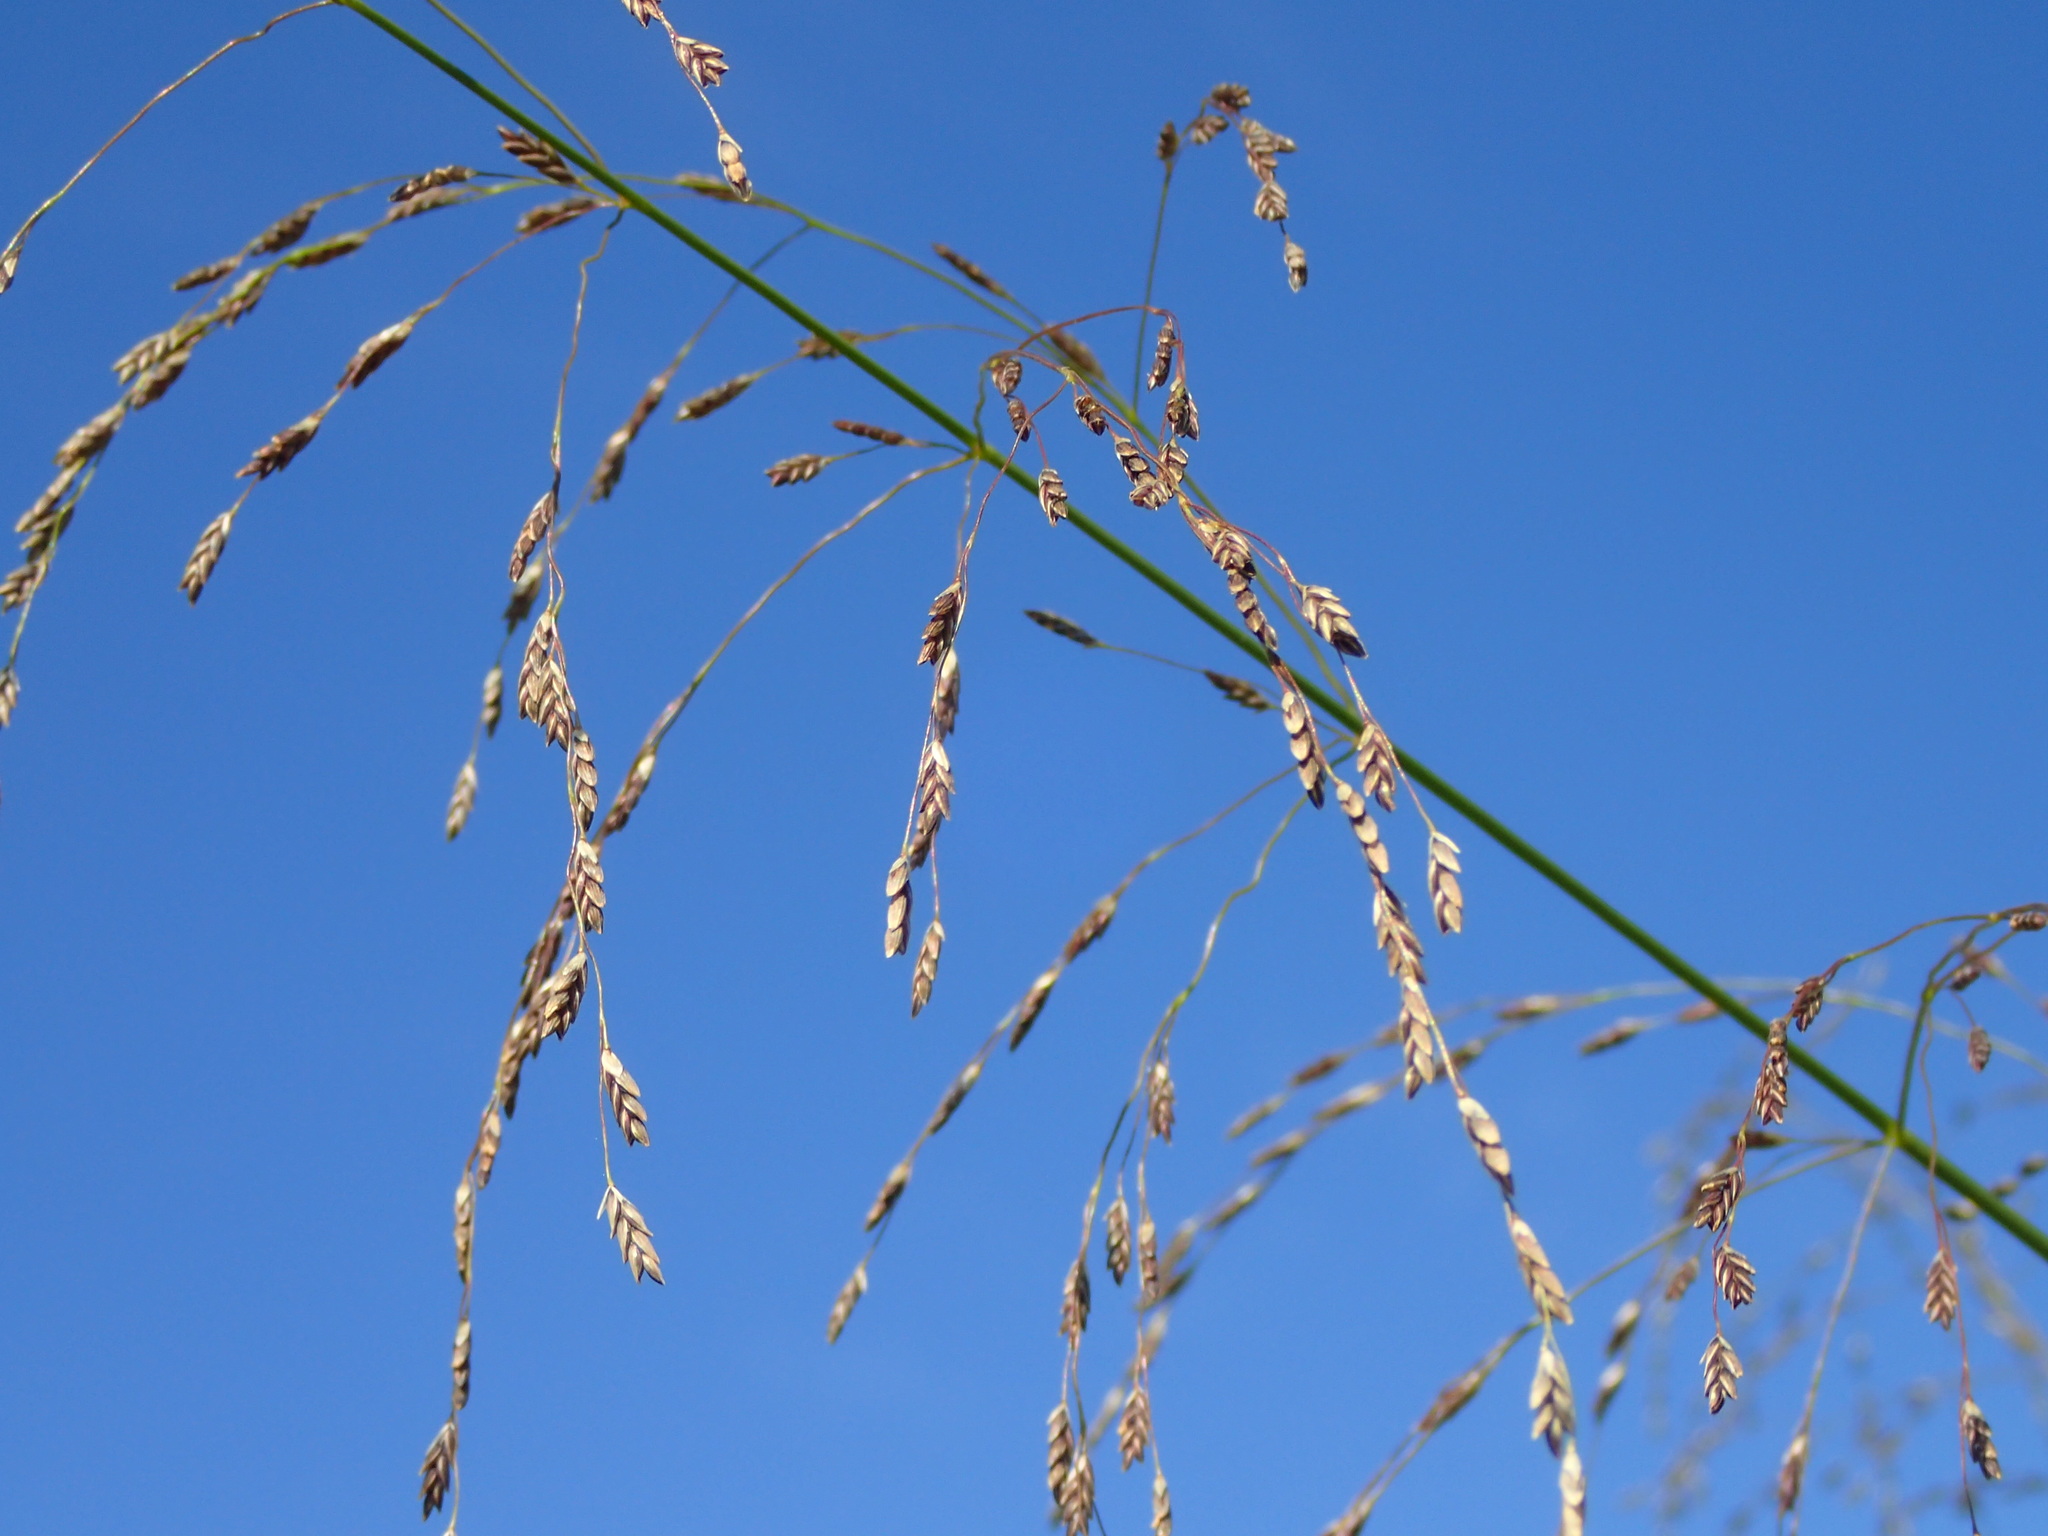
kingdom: Plantae
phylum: Tracheophyta
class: Liliopsida
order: Poales
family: Poaceae
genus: Glyceria
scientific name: Glyceria grandis
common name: American glyceria
